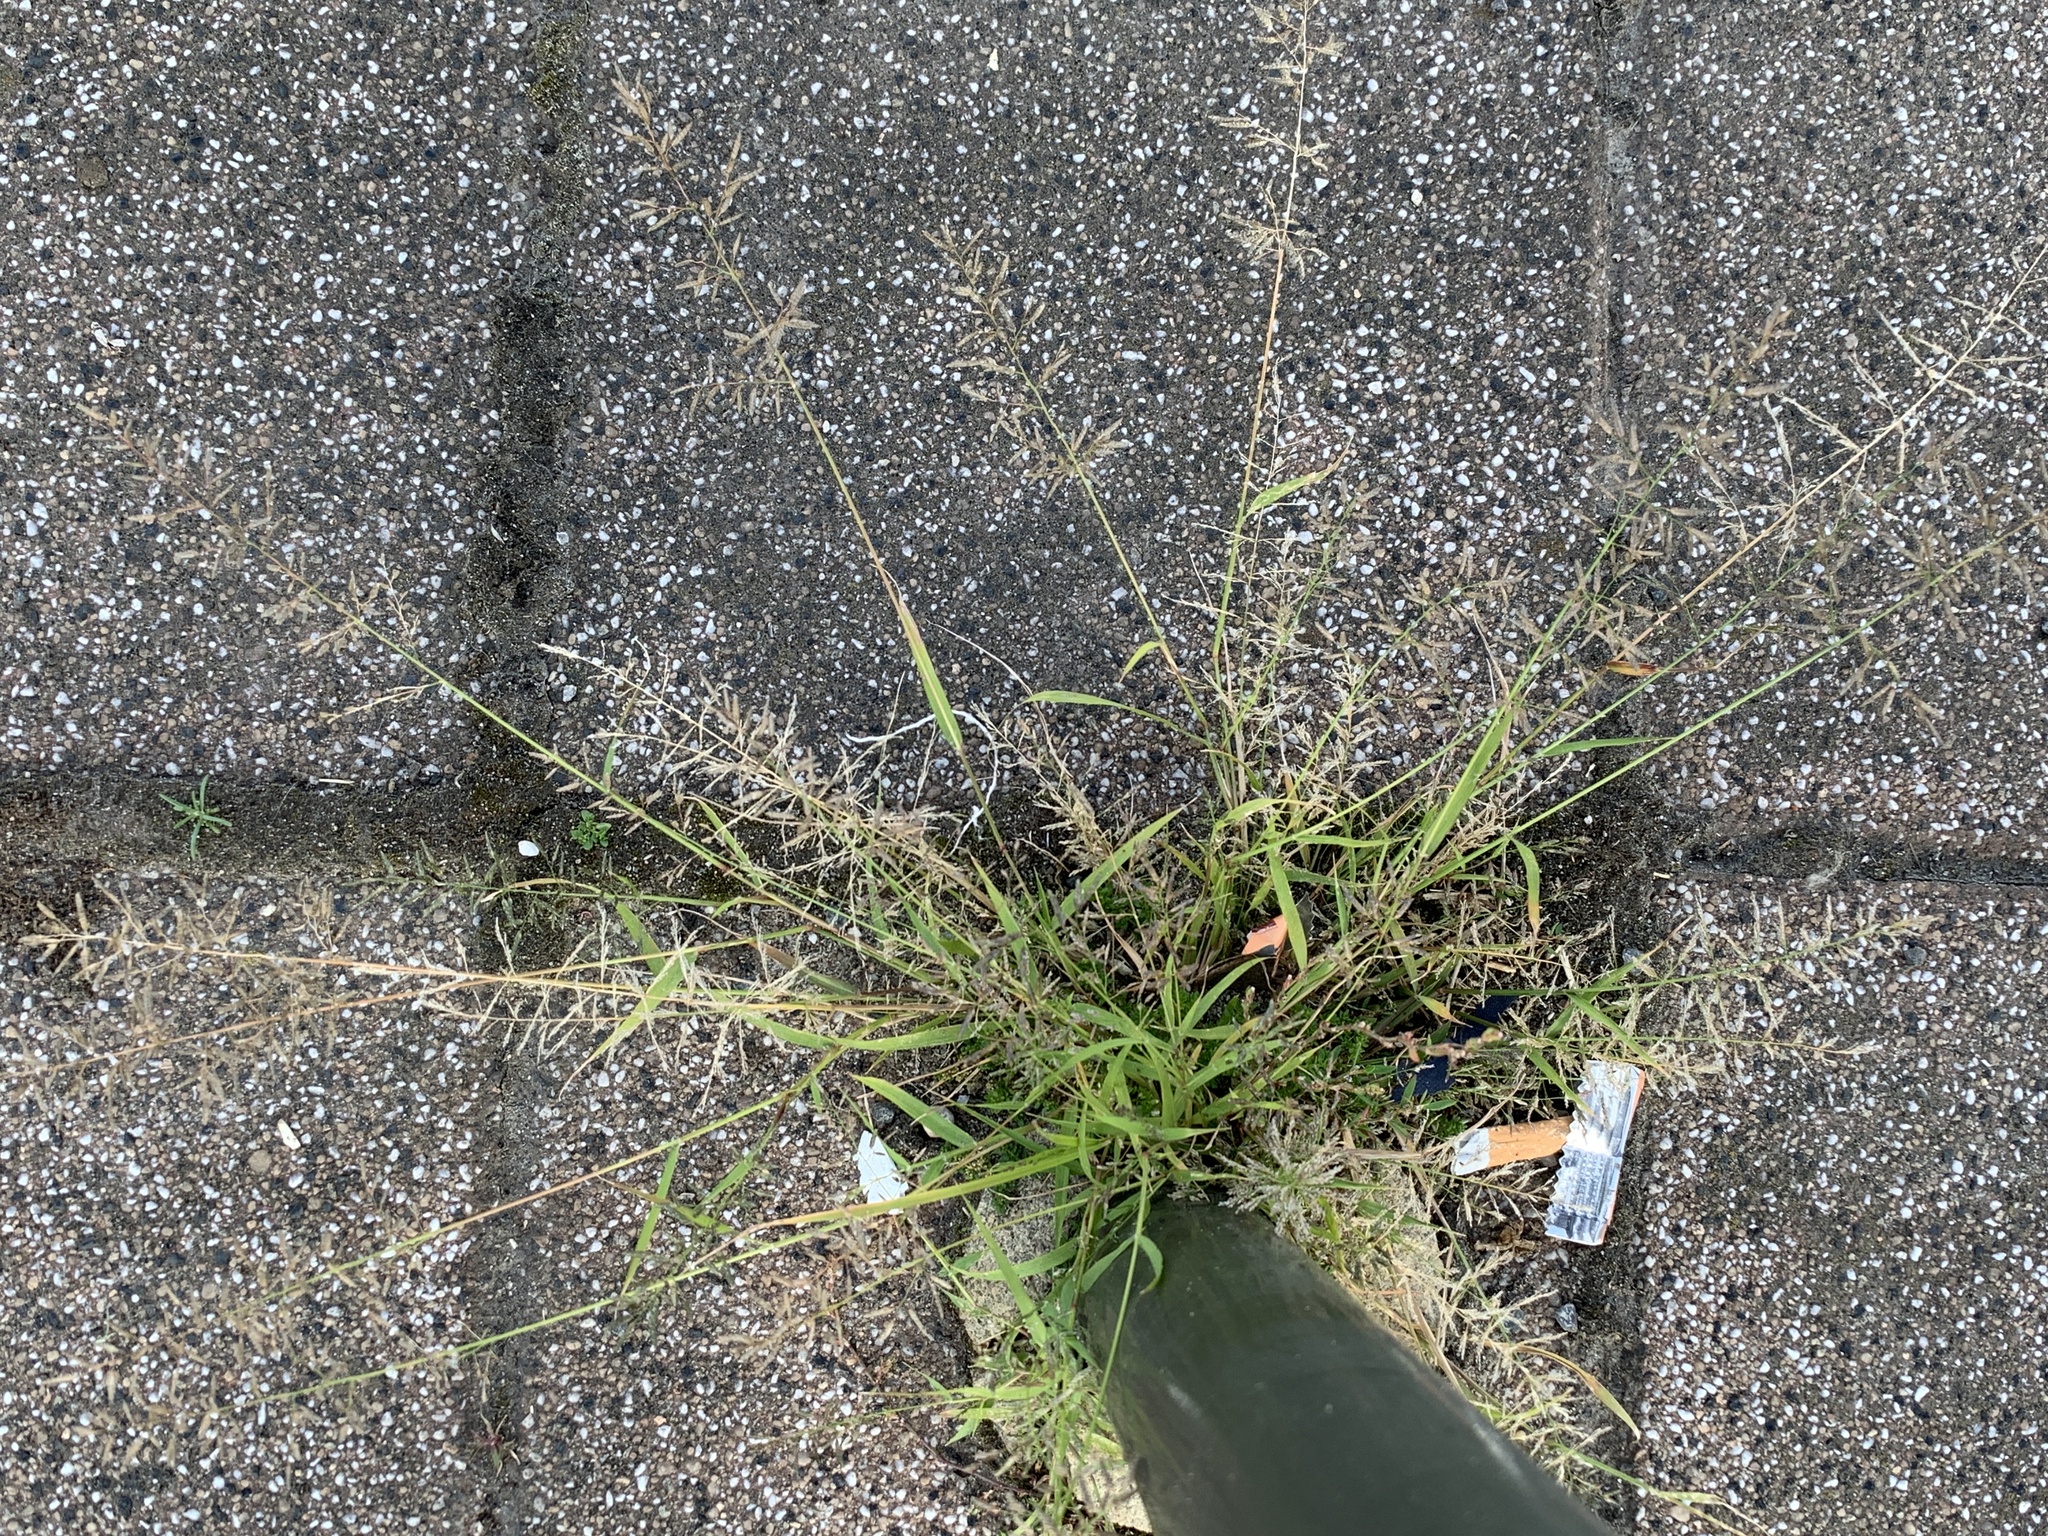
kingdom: Plantae
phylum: Tracheophyta
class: Liliopsida
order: Poales
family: Poaceae
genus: Eragrostis
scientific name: Eragrostis minor
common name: Small love-grass
